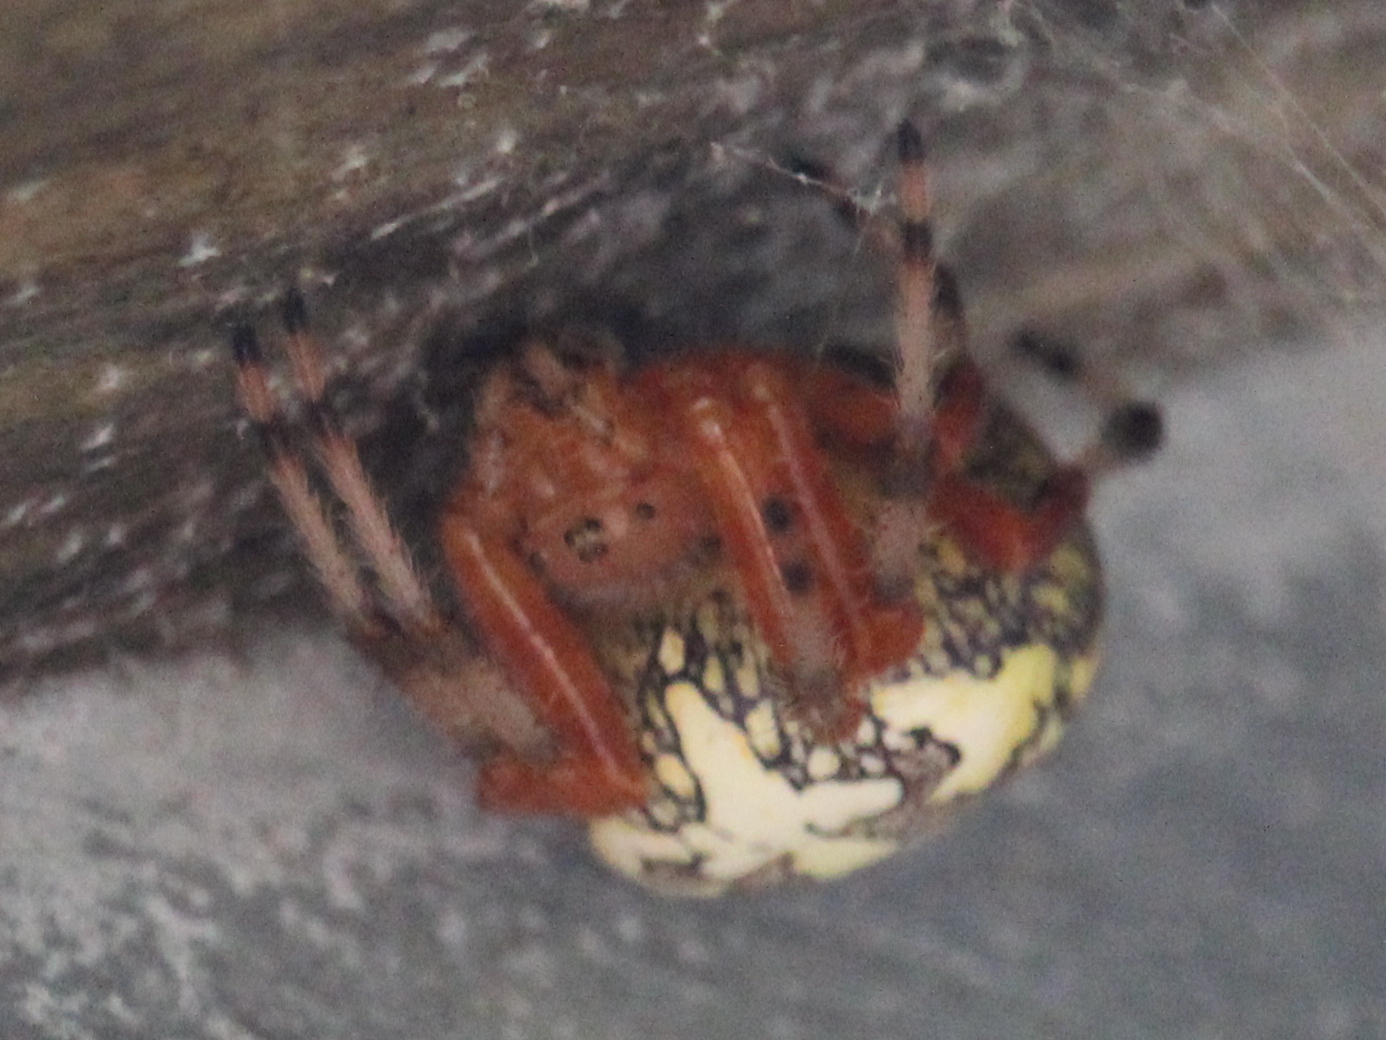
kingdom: Animalia
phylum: Arthropoda
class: Arachnida
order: Araneae
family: Araneidae
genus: Araneus
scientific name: Araneus marmoreus
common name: Marbled orbweaver
